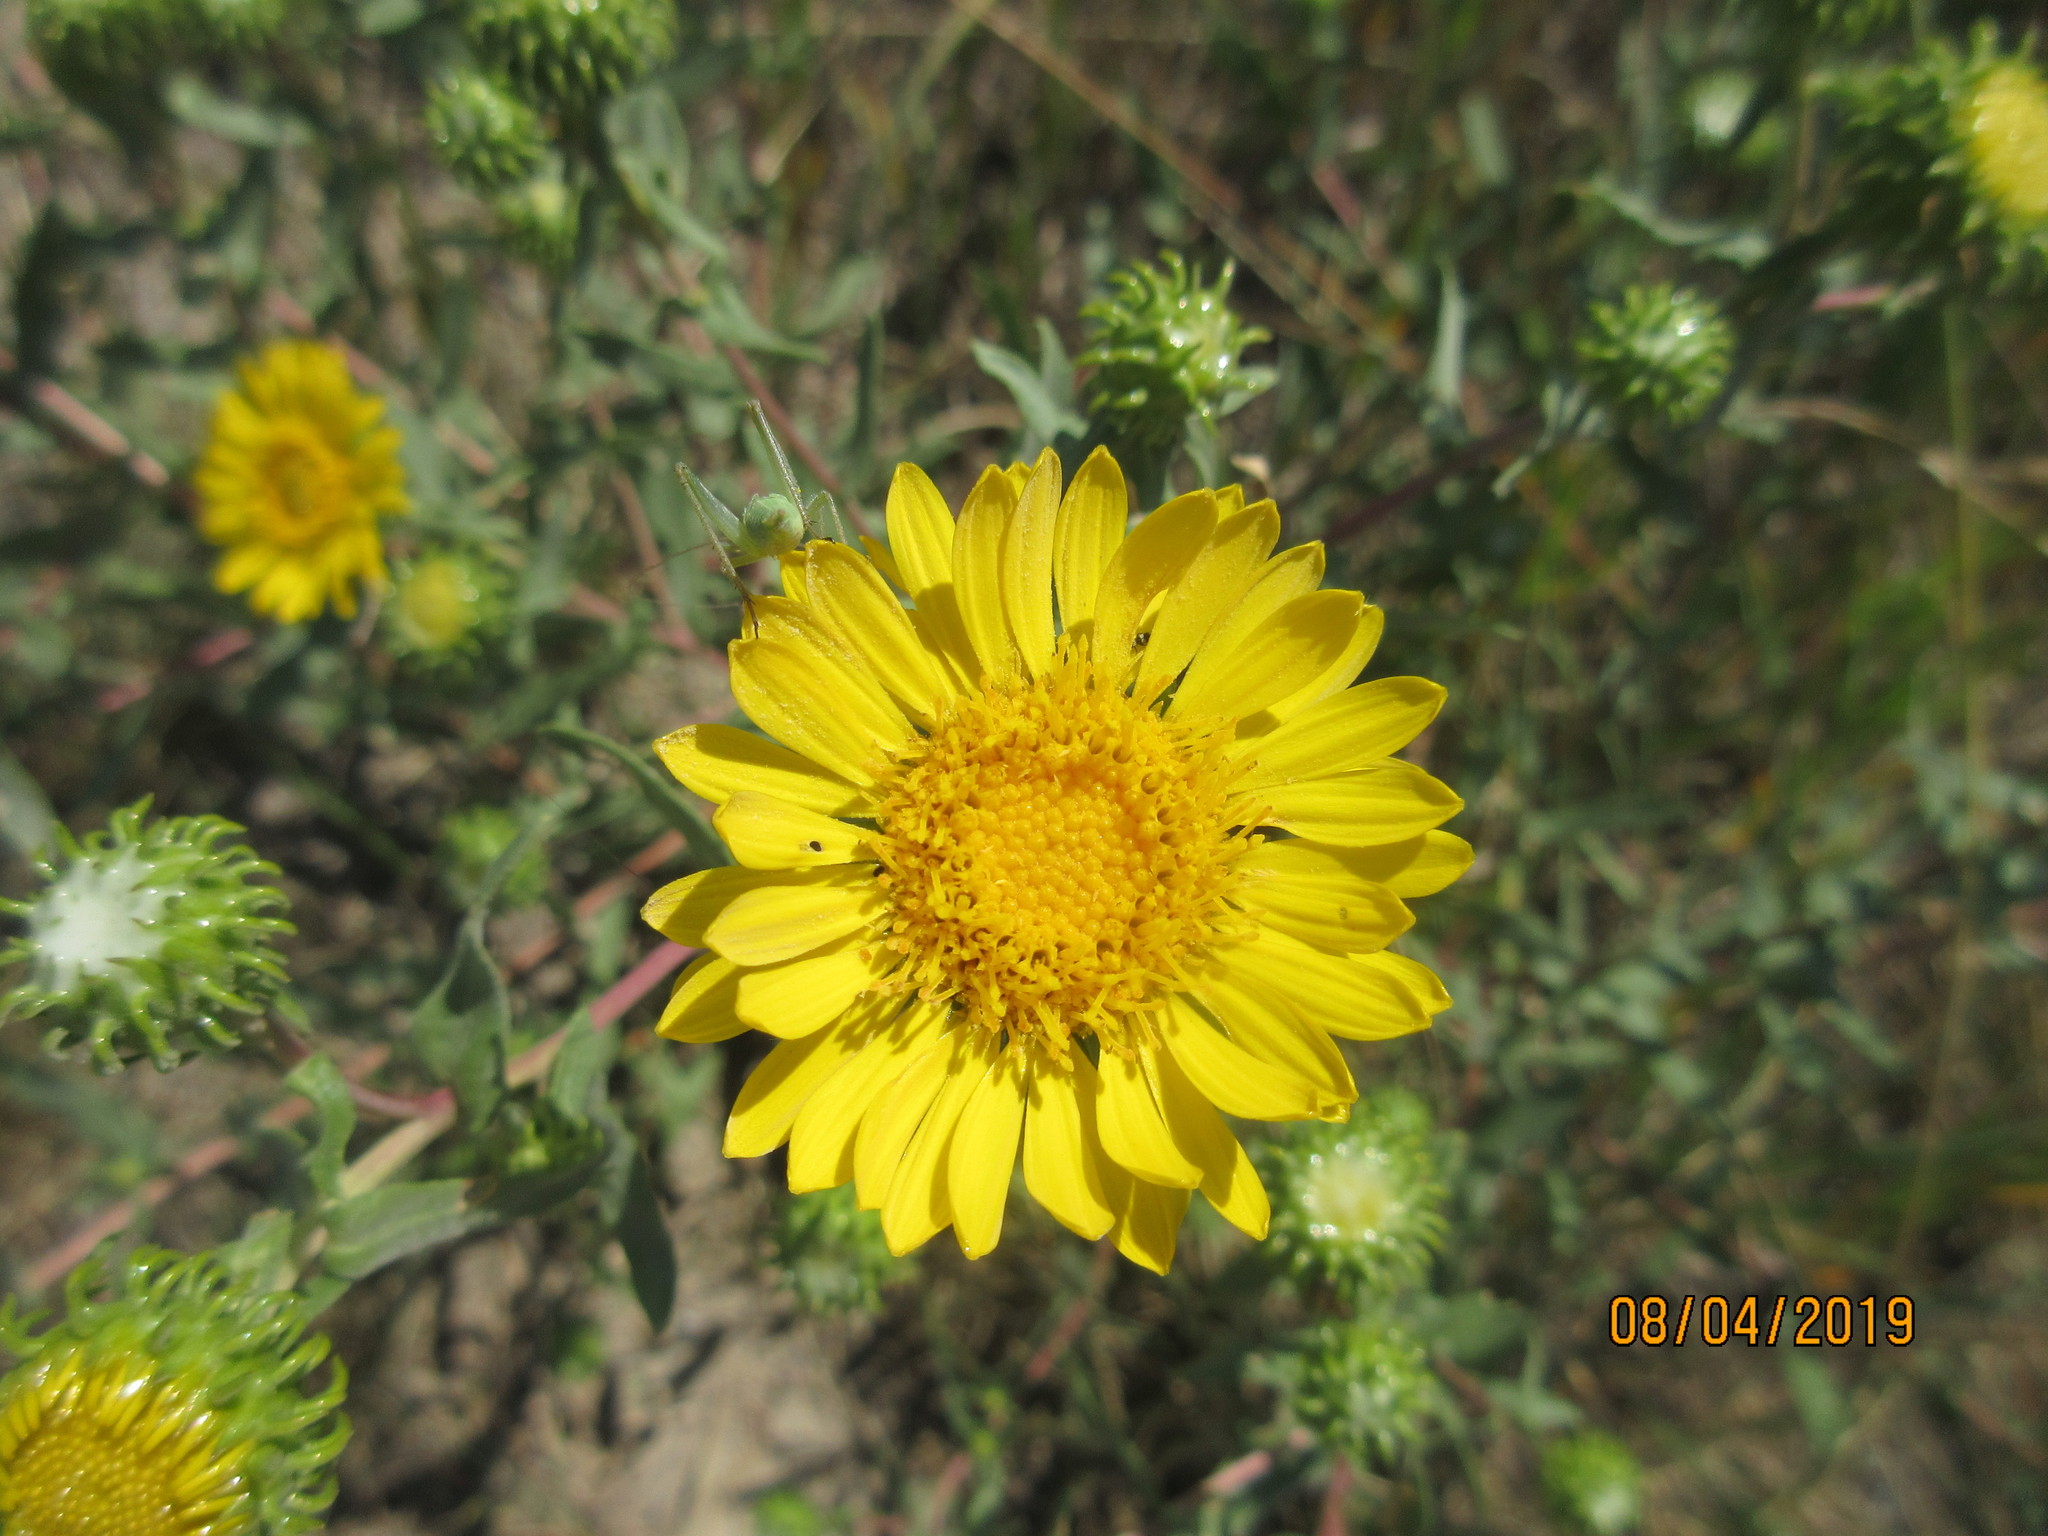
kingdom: Plantae
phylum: Tracheophyta
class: Magnoliopsida
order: Asterales
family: Asteraceae
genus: Grindelia
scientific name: Grindelia squarrosa
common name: Curly-cup gumweed
